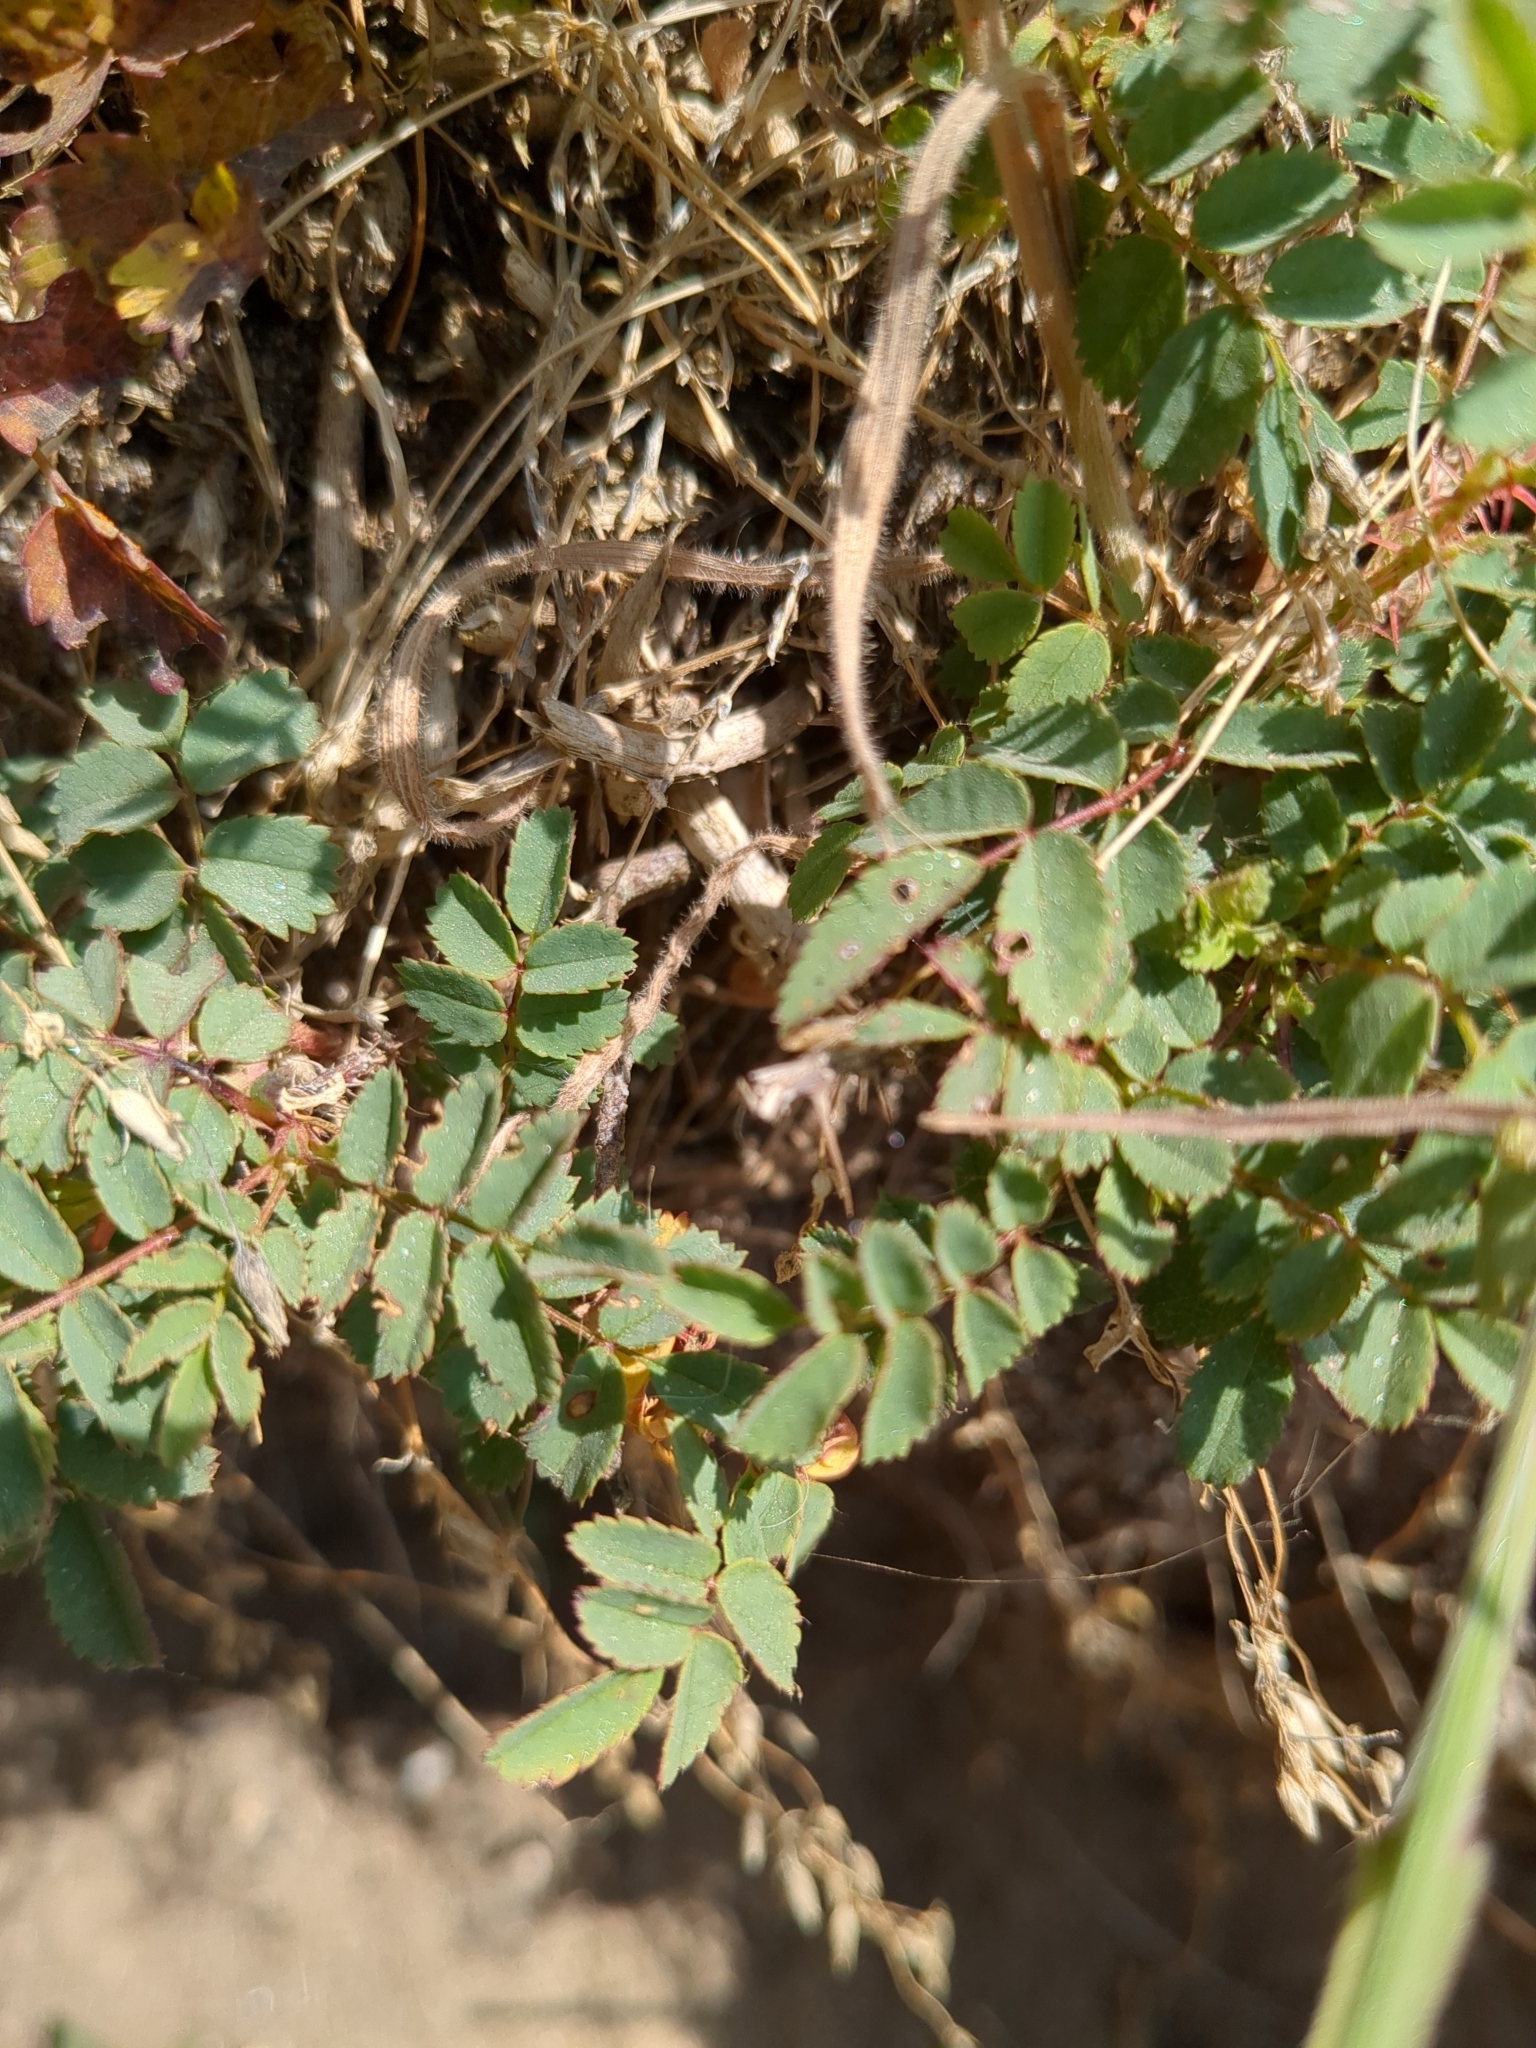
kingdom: Plantae
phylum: Tracheophyta
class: Magnoliopsida
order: Rosales
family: Rosaceae
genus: Rosa
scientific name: Rosa spinosissima
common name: Burnet rose
